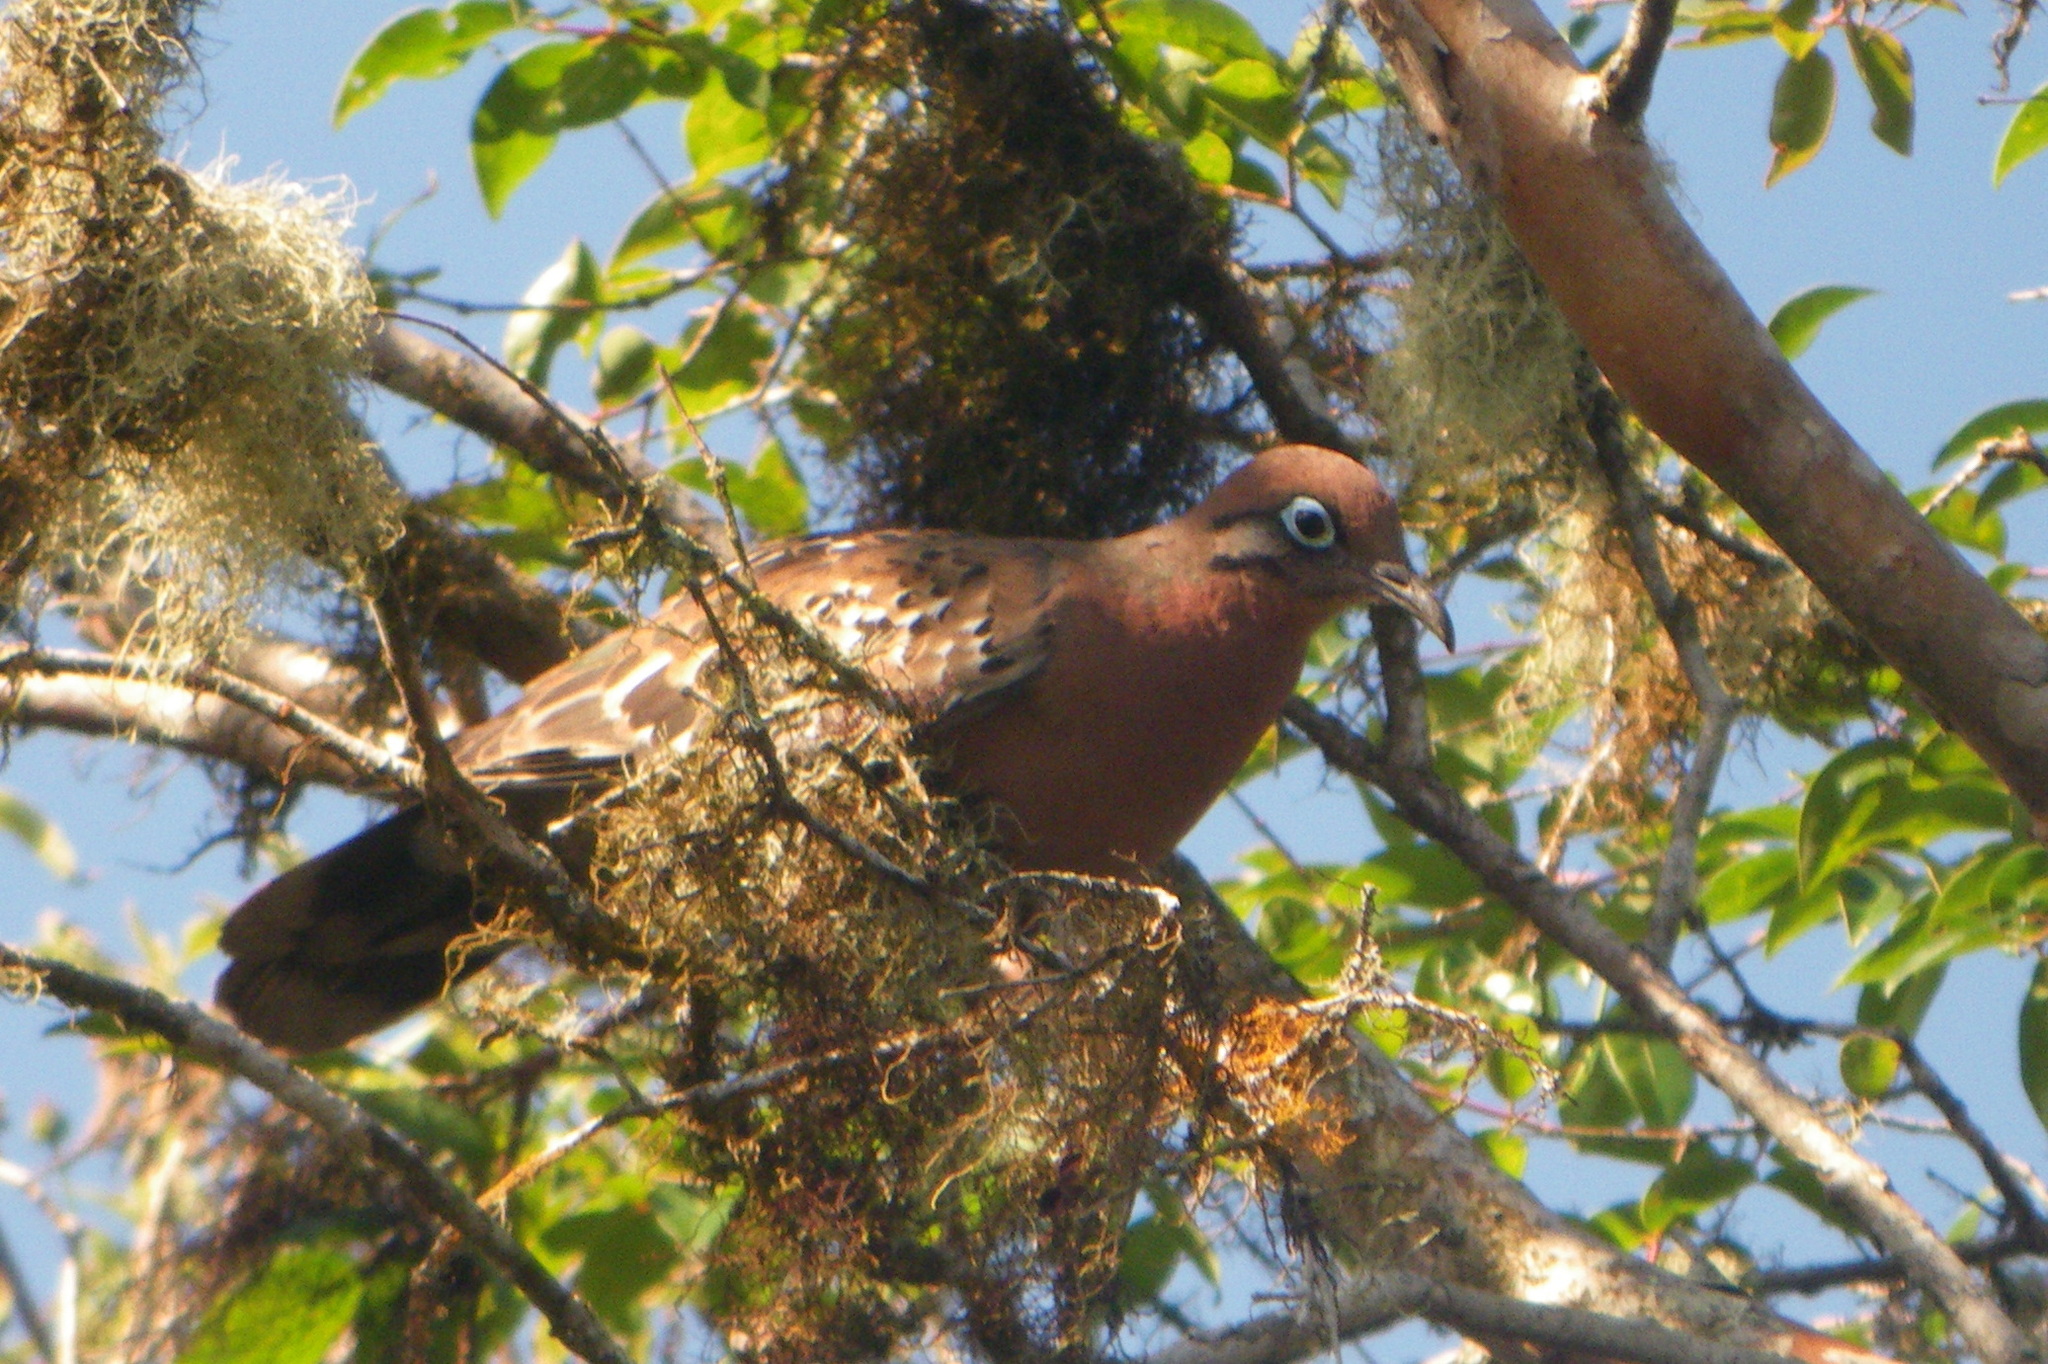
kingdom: Animalia
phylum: Chordata
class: Aves
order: Columbiformes
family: Columbidae
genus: Zenaida
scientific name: Zenaida galapagoensis
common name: Galapagos dove
